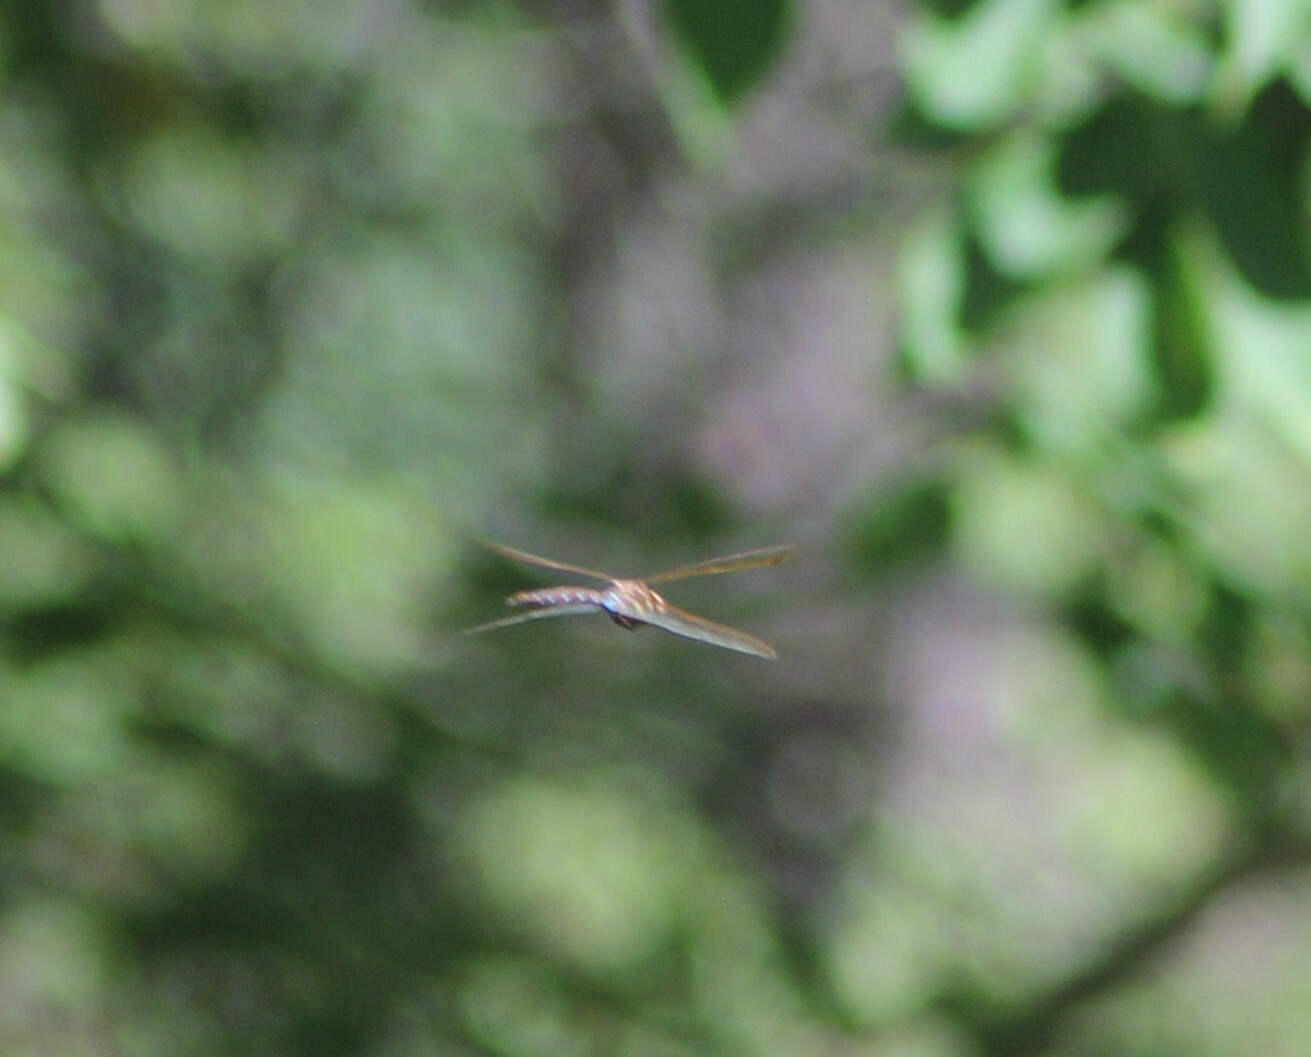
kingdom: Animalia
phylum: Arthropoda
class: Insecta
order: Odonata
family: Aeshnidae
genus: Aeshna
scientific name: Aeshna grandis
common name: Brown hawker
